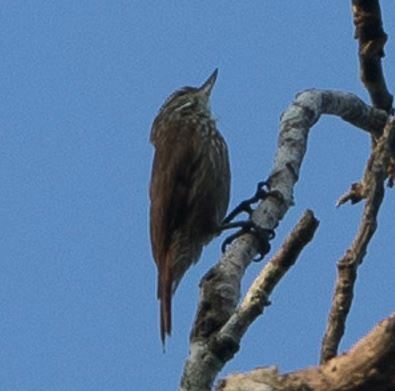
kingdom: Animalia
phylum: Chordata
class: Aves
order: Passeriformes
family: Furnariidae
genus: Xenops
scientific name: Xenops rutilans
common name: Streaked xenops
